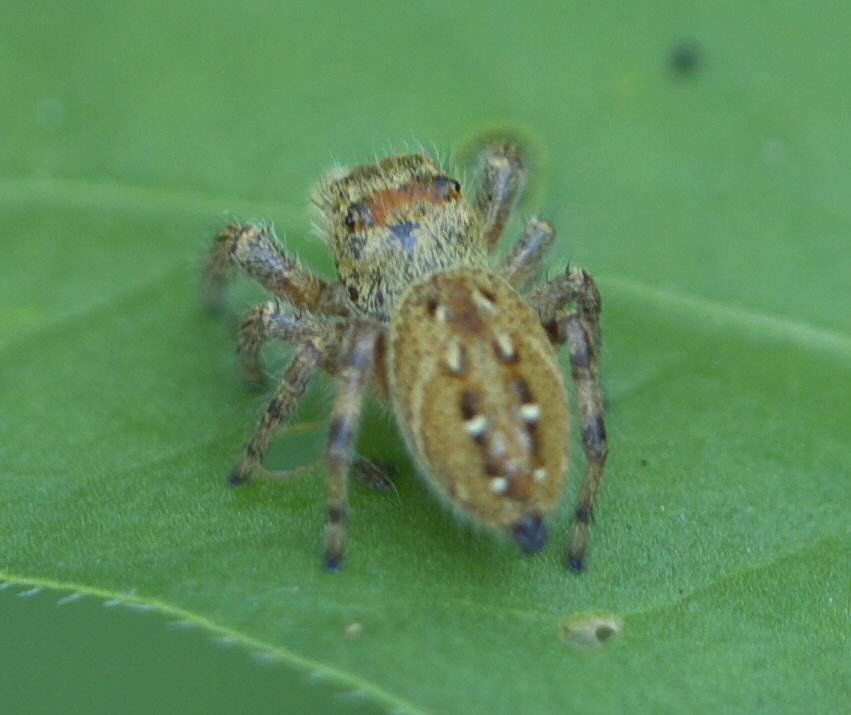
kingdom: Animalia
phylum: Arthropoda
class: Arachnida
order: Araneae
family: Salticidae
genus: Phidippus
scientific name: Phidippus clarus
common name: Brilliant jumping spider
